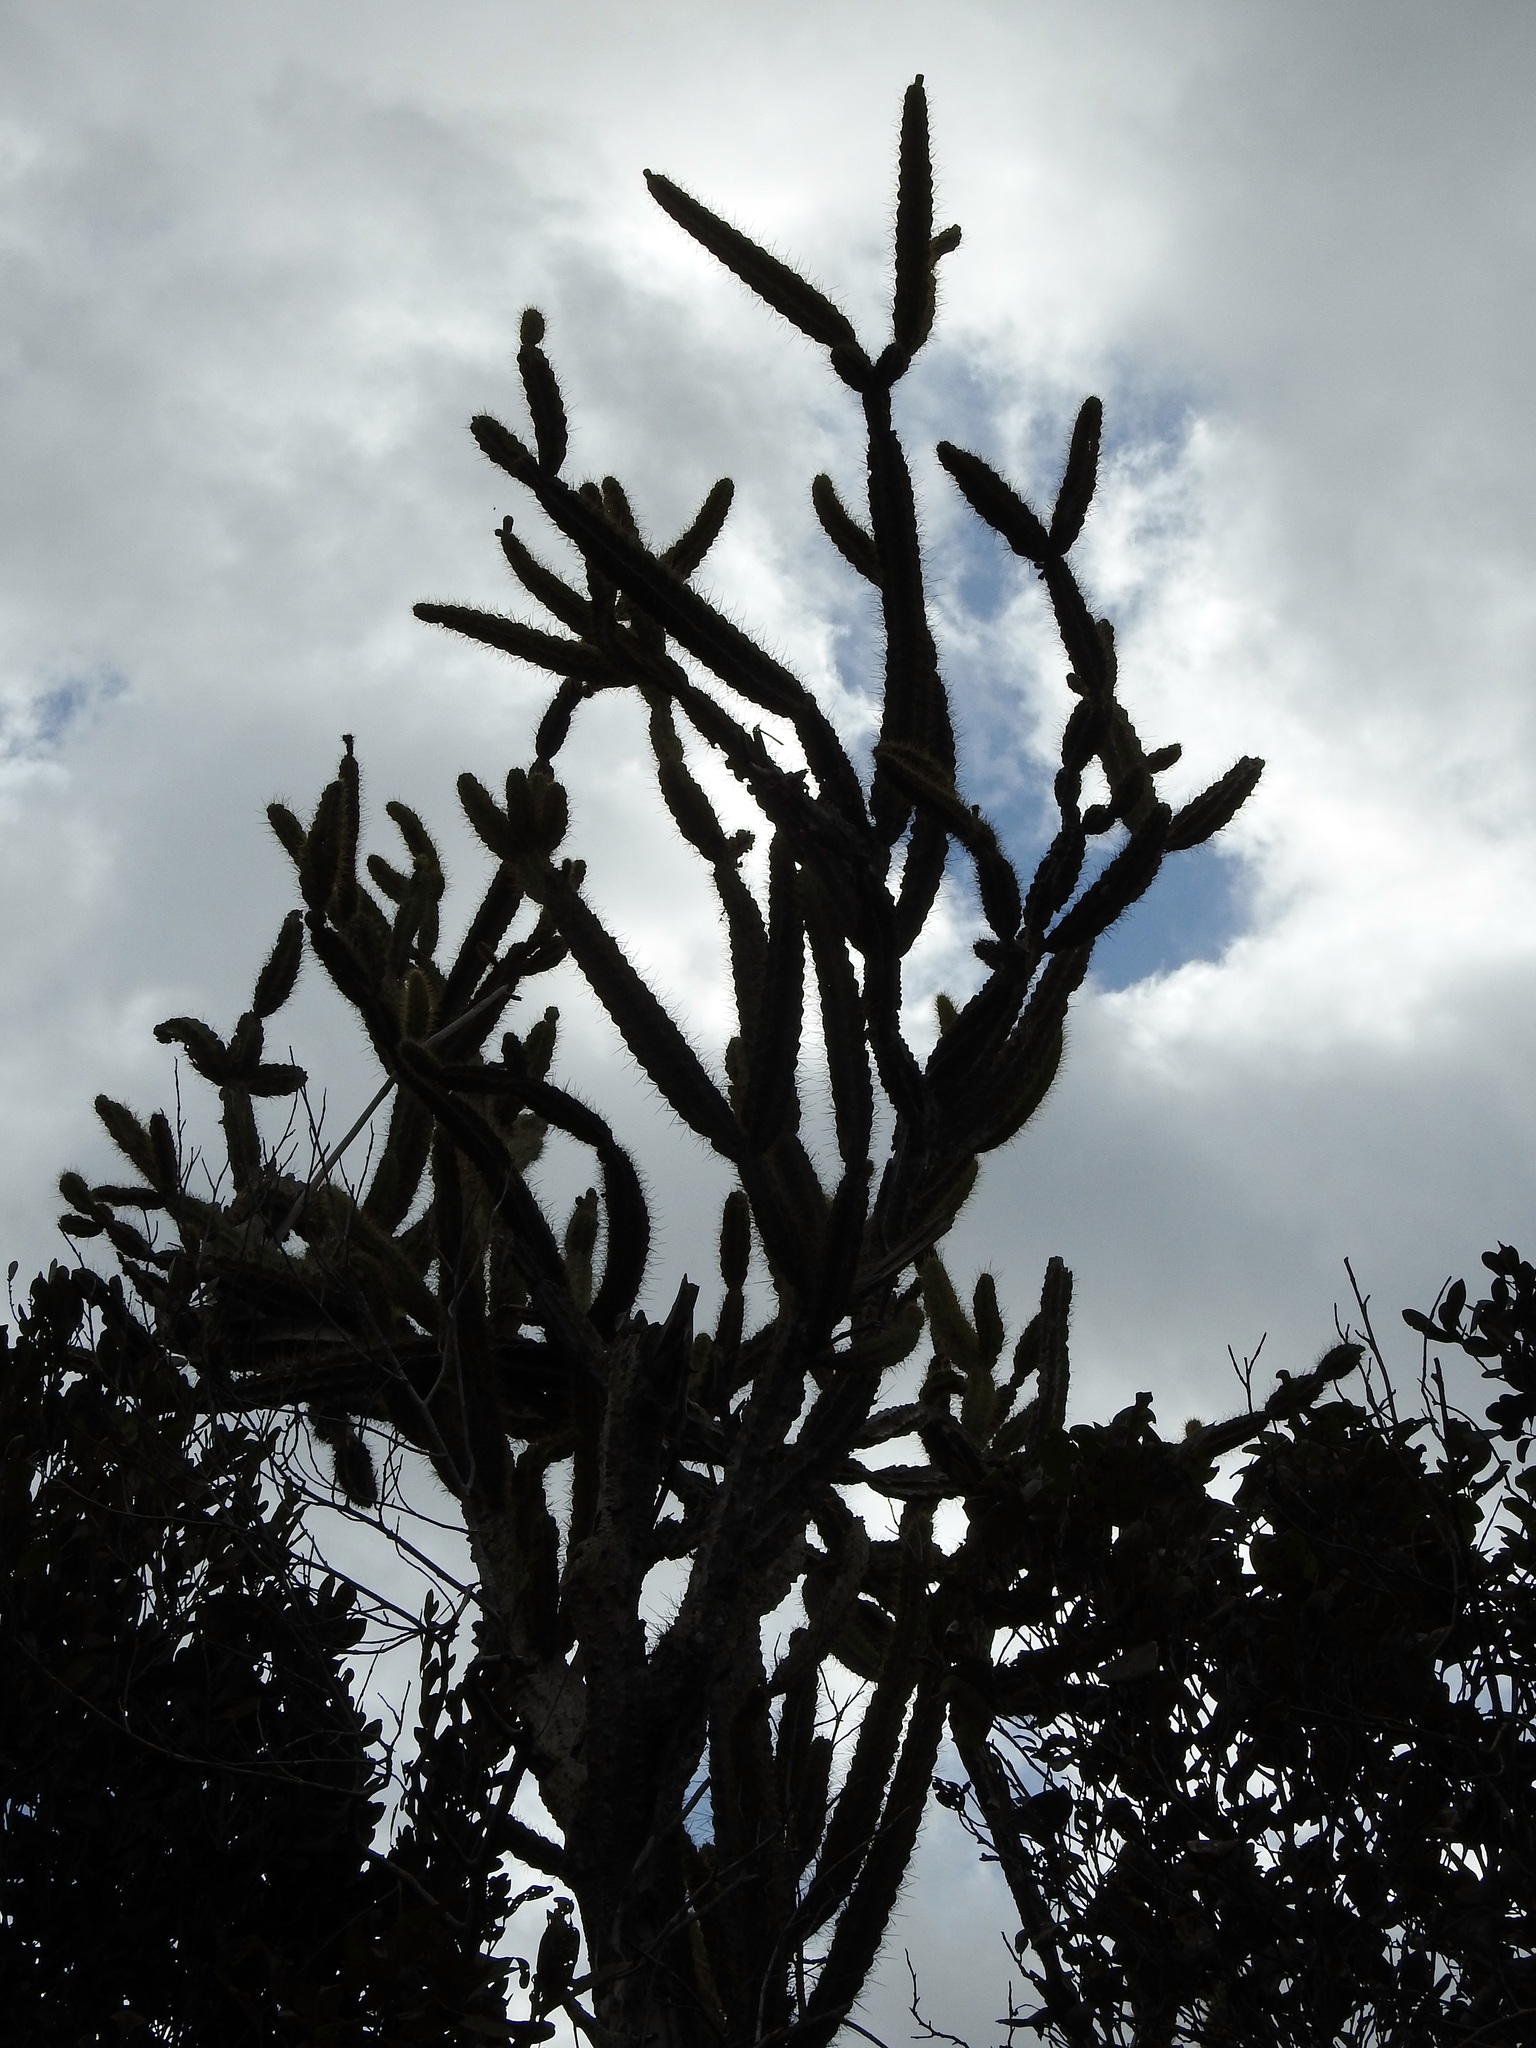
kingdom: Plantae
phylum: Tracheophyta
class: Magnoliopsida
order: Caryophyllales
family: Cactaceae
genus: Leptocereus
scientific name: Leptocereus arboreus
